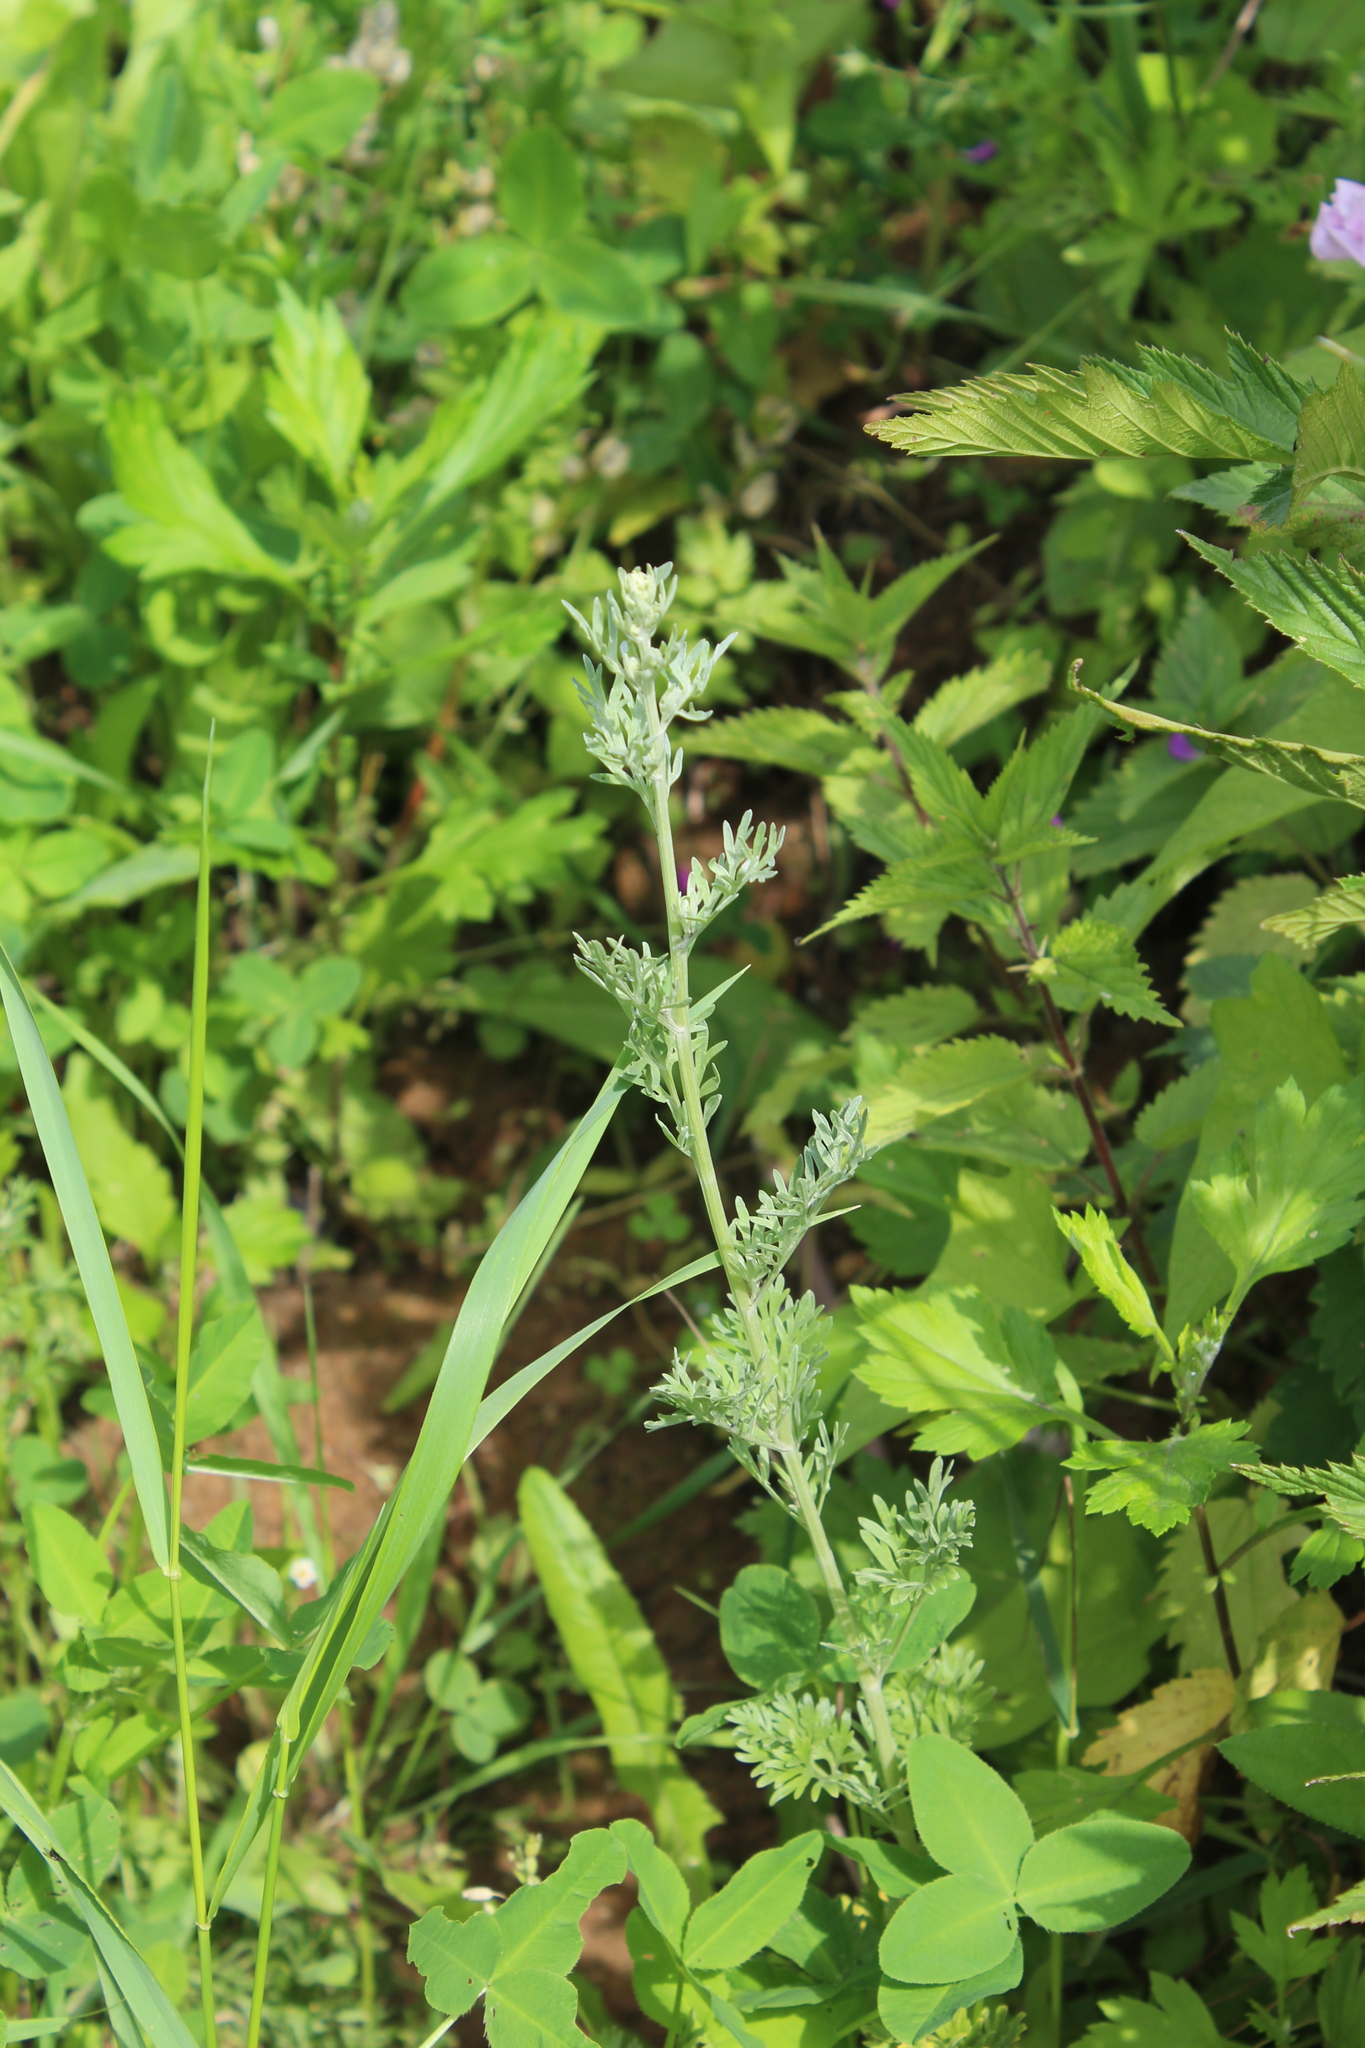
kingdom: Plantae
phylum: Tracheophyta
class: Magnoliopsida
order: Asterales
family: Asteraceae
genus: Artemisia
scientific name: Artemisia absinthium
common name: Wormwood
